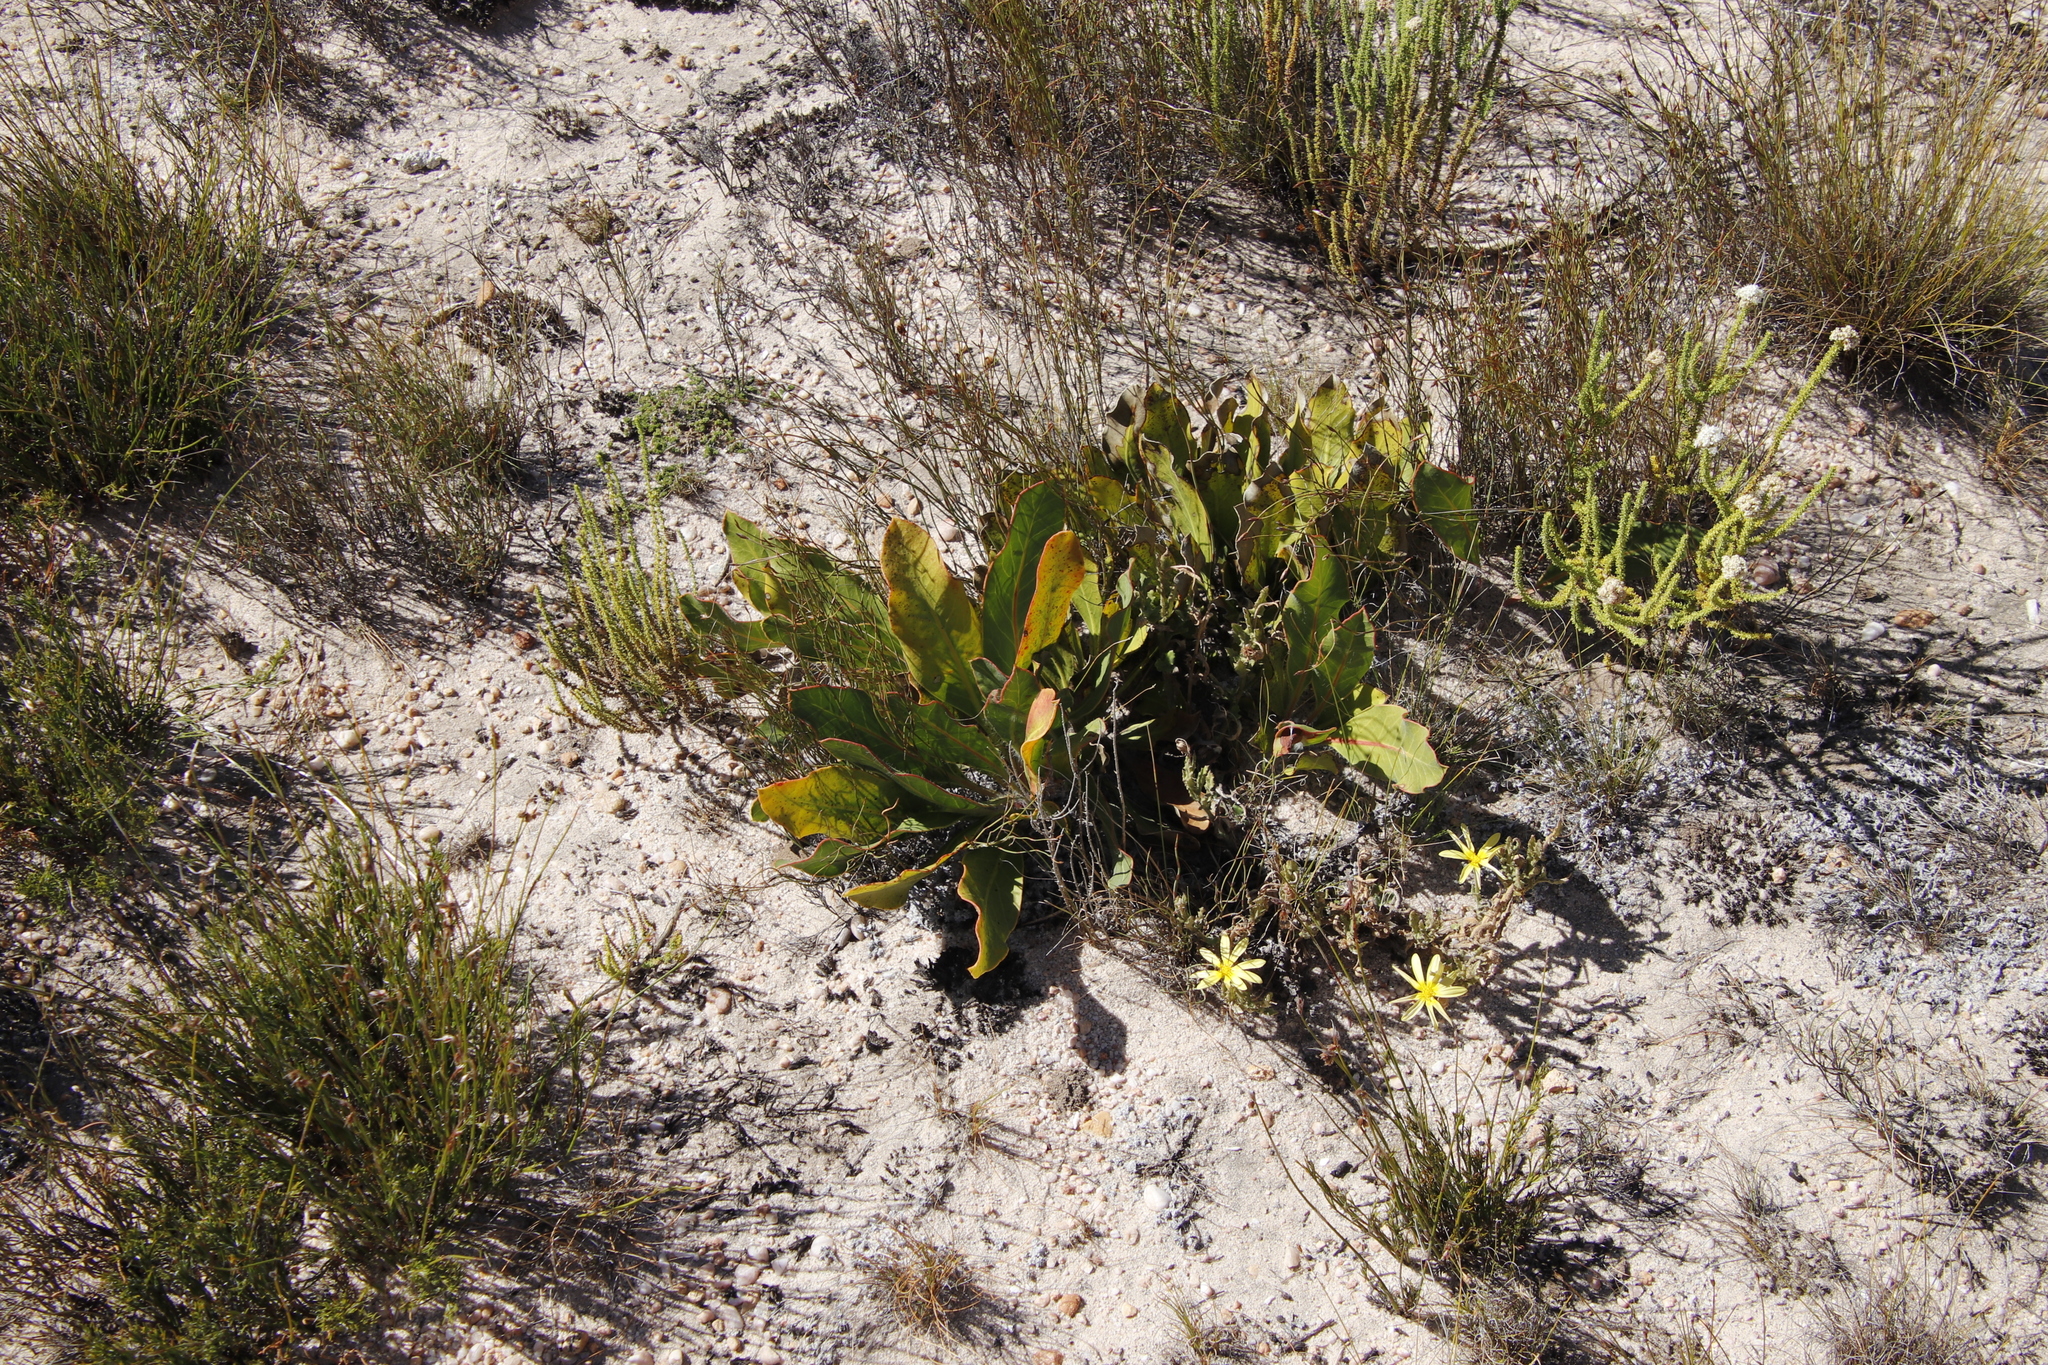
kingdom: Plantae
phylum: Tracheophyta
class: Magnoliopsida
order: Proteales
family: Proteaceae
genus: Protea
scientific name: Protea scolopendriifolia
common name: Harts-tongue-fern sugarbush
